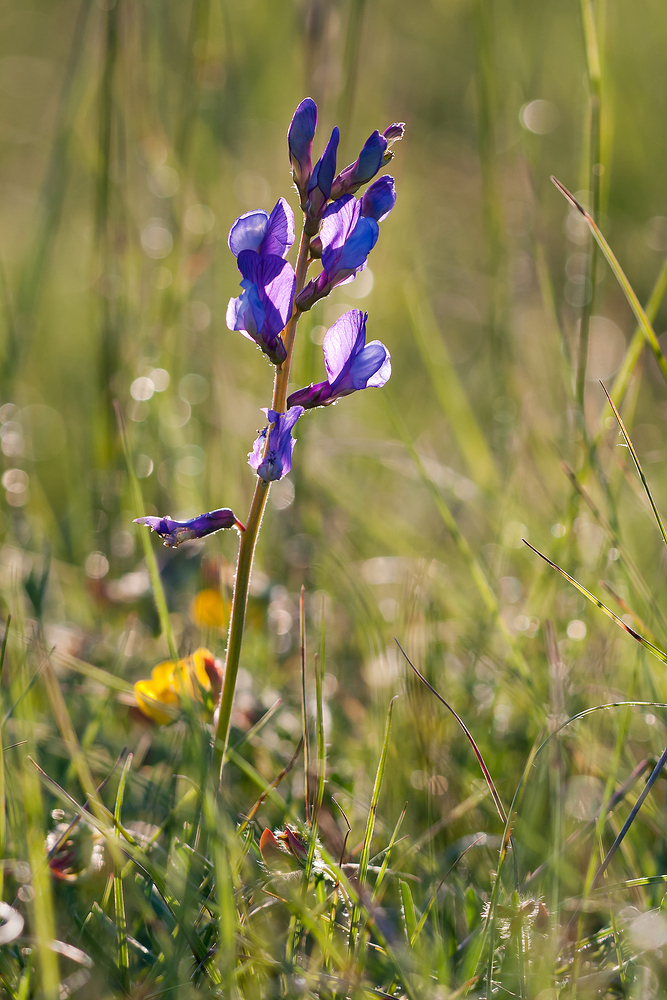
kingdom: Plantae
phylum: Tracheophyta
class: Magnoliopsida
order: Fabales
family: Fabaceae
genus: Vicia
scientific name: Vicia onobrychioides
